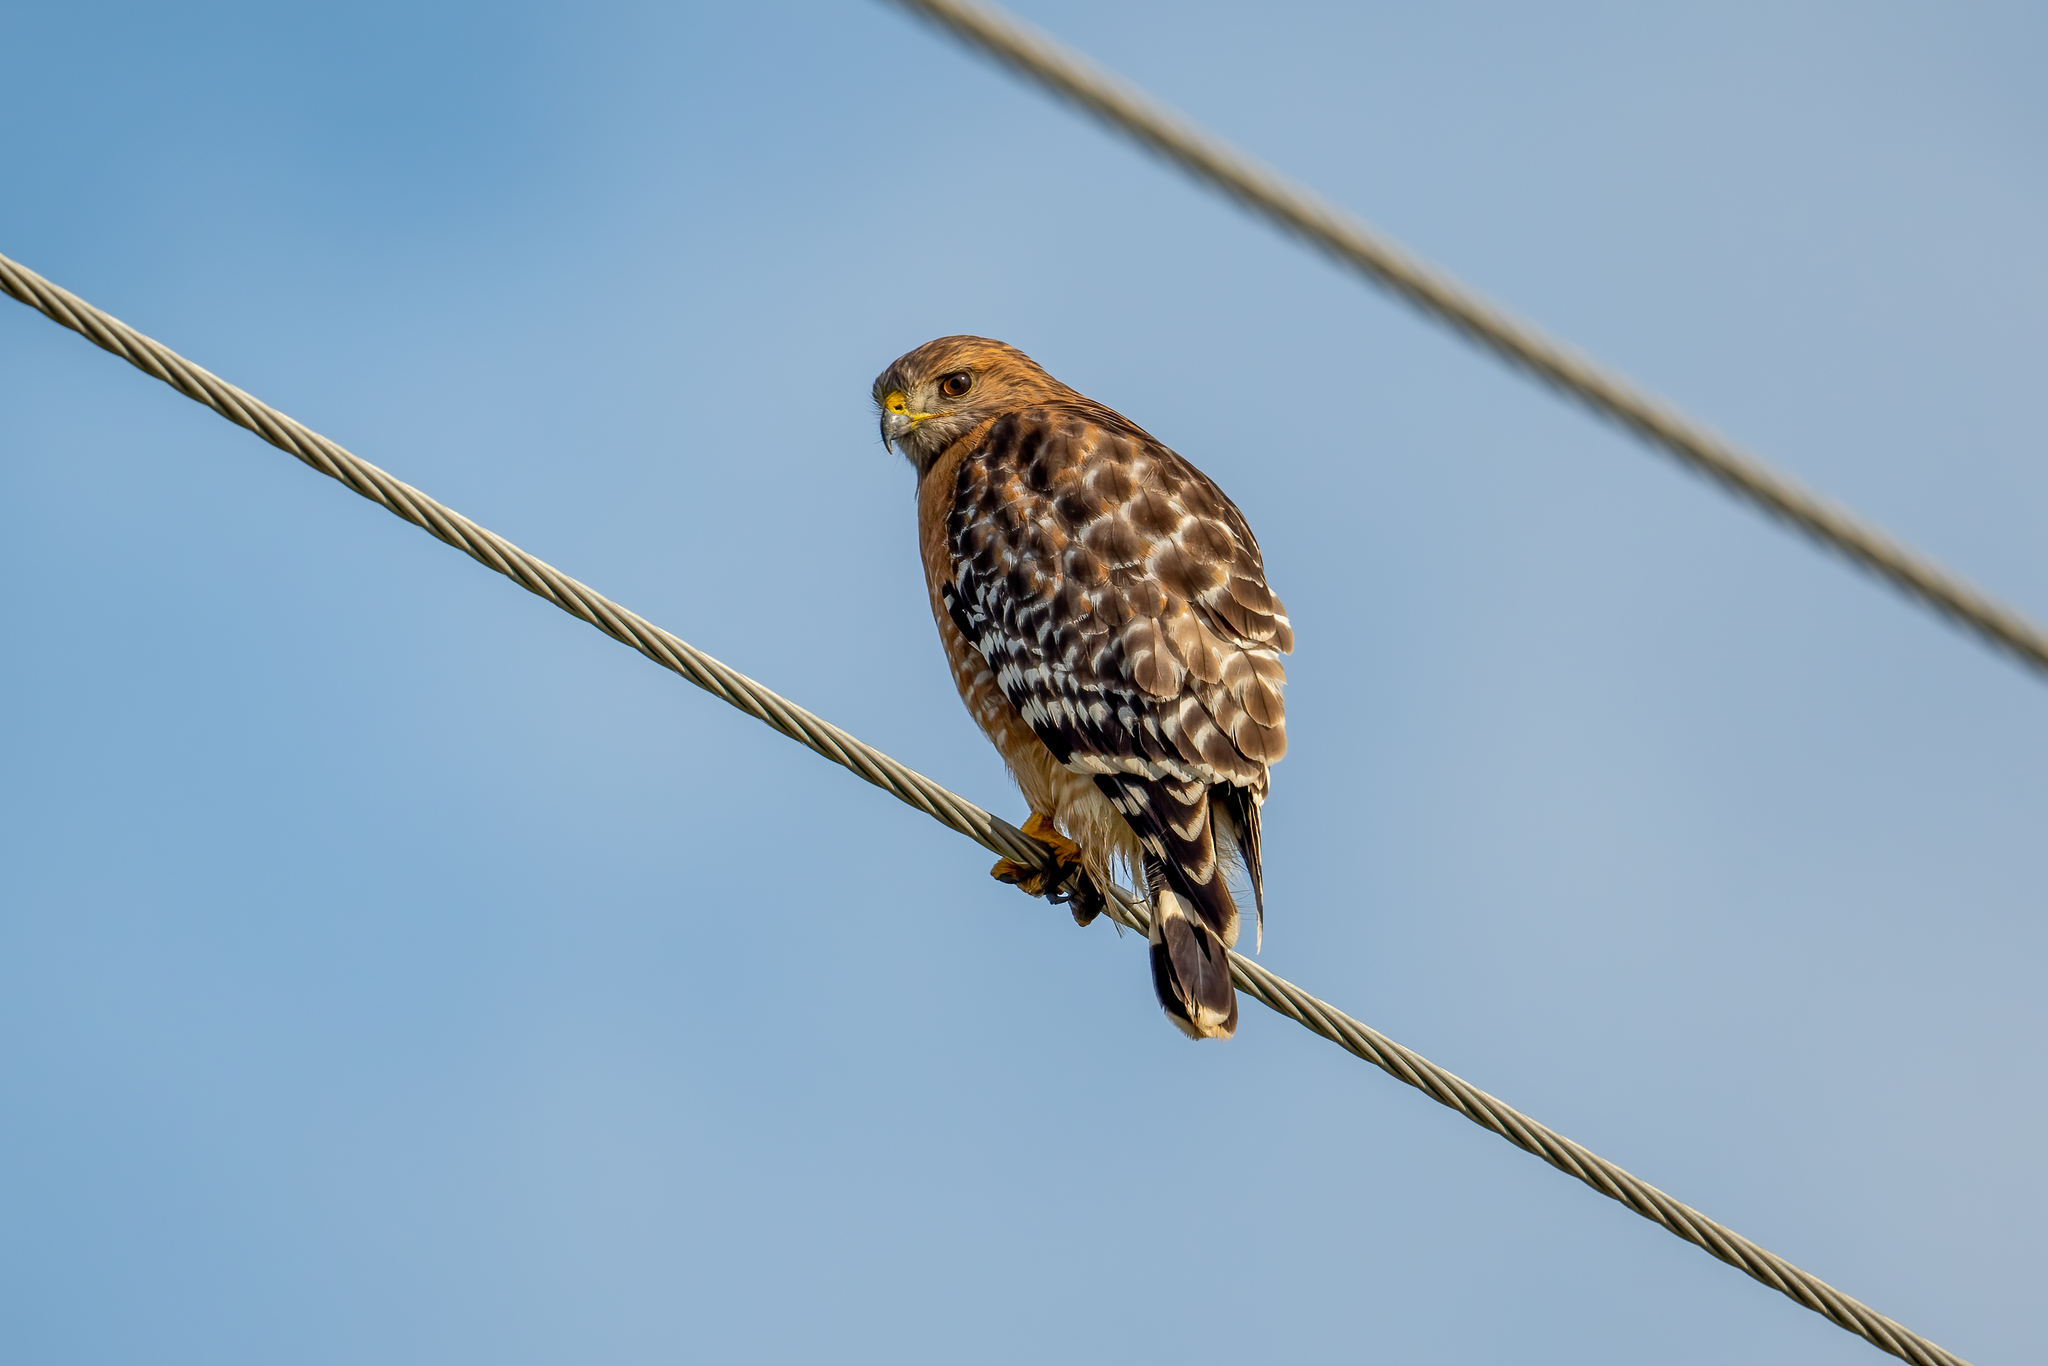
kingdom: Animalia
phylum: Chordata
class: Aves
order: Accipitriformes
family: Accipitridae
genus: Buteo
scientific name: Buteo lineatus
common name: Red-shouldered hawk
